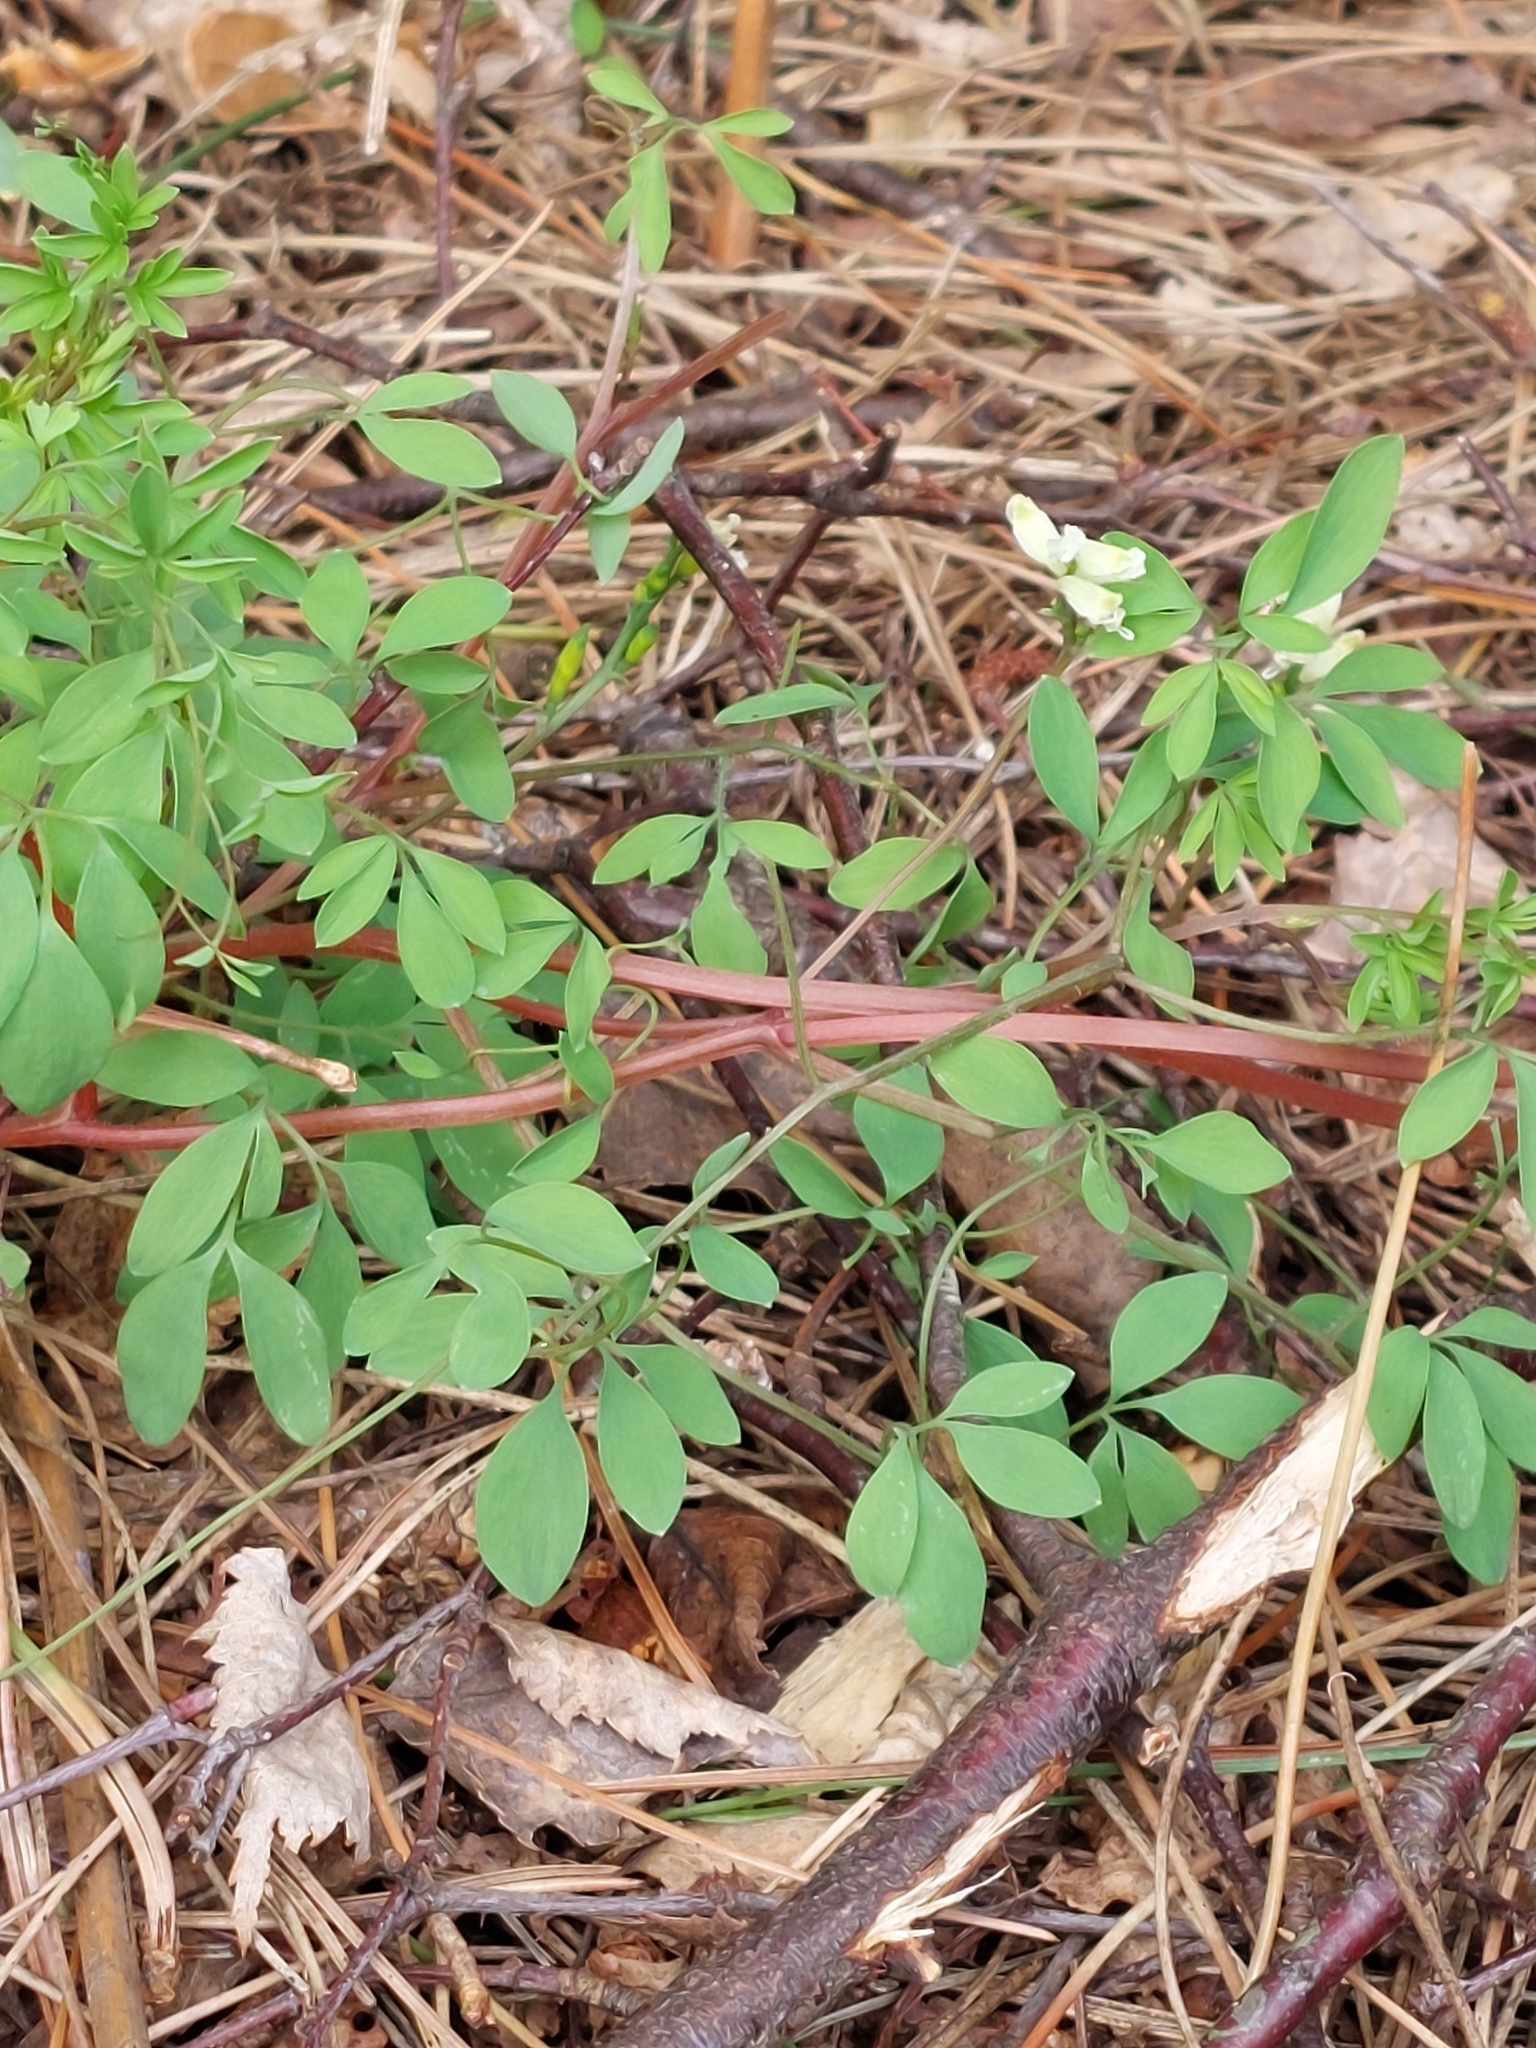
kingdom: Plantae
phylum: Tracheophyta
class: Magnoliopsida
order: Ranunculales
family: Papaveraceae
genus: Ceratocapnos
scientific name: Ceratocapnos claviculata
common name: Climbing corydalis
